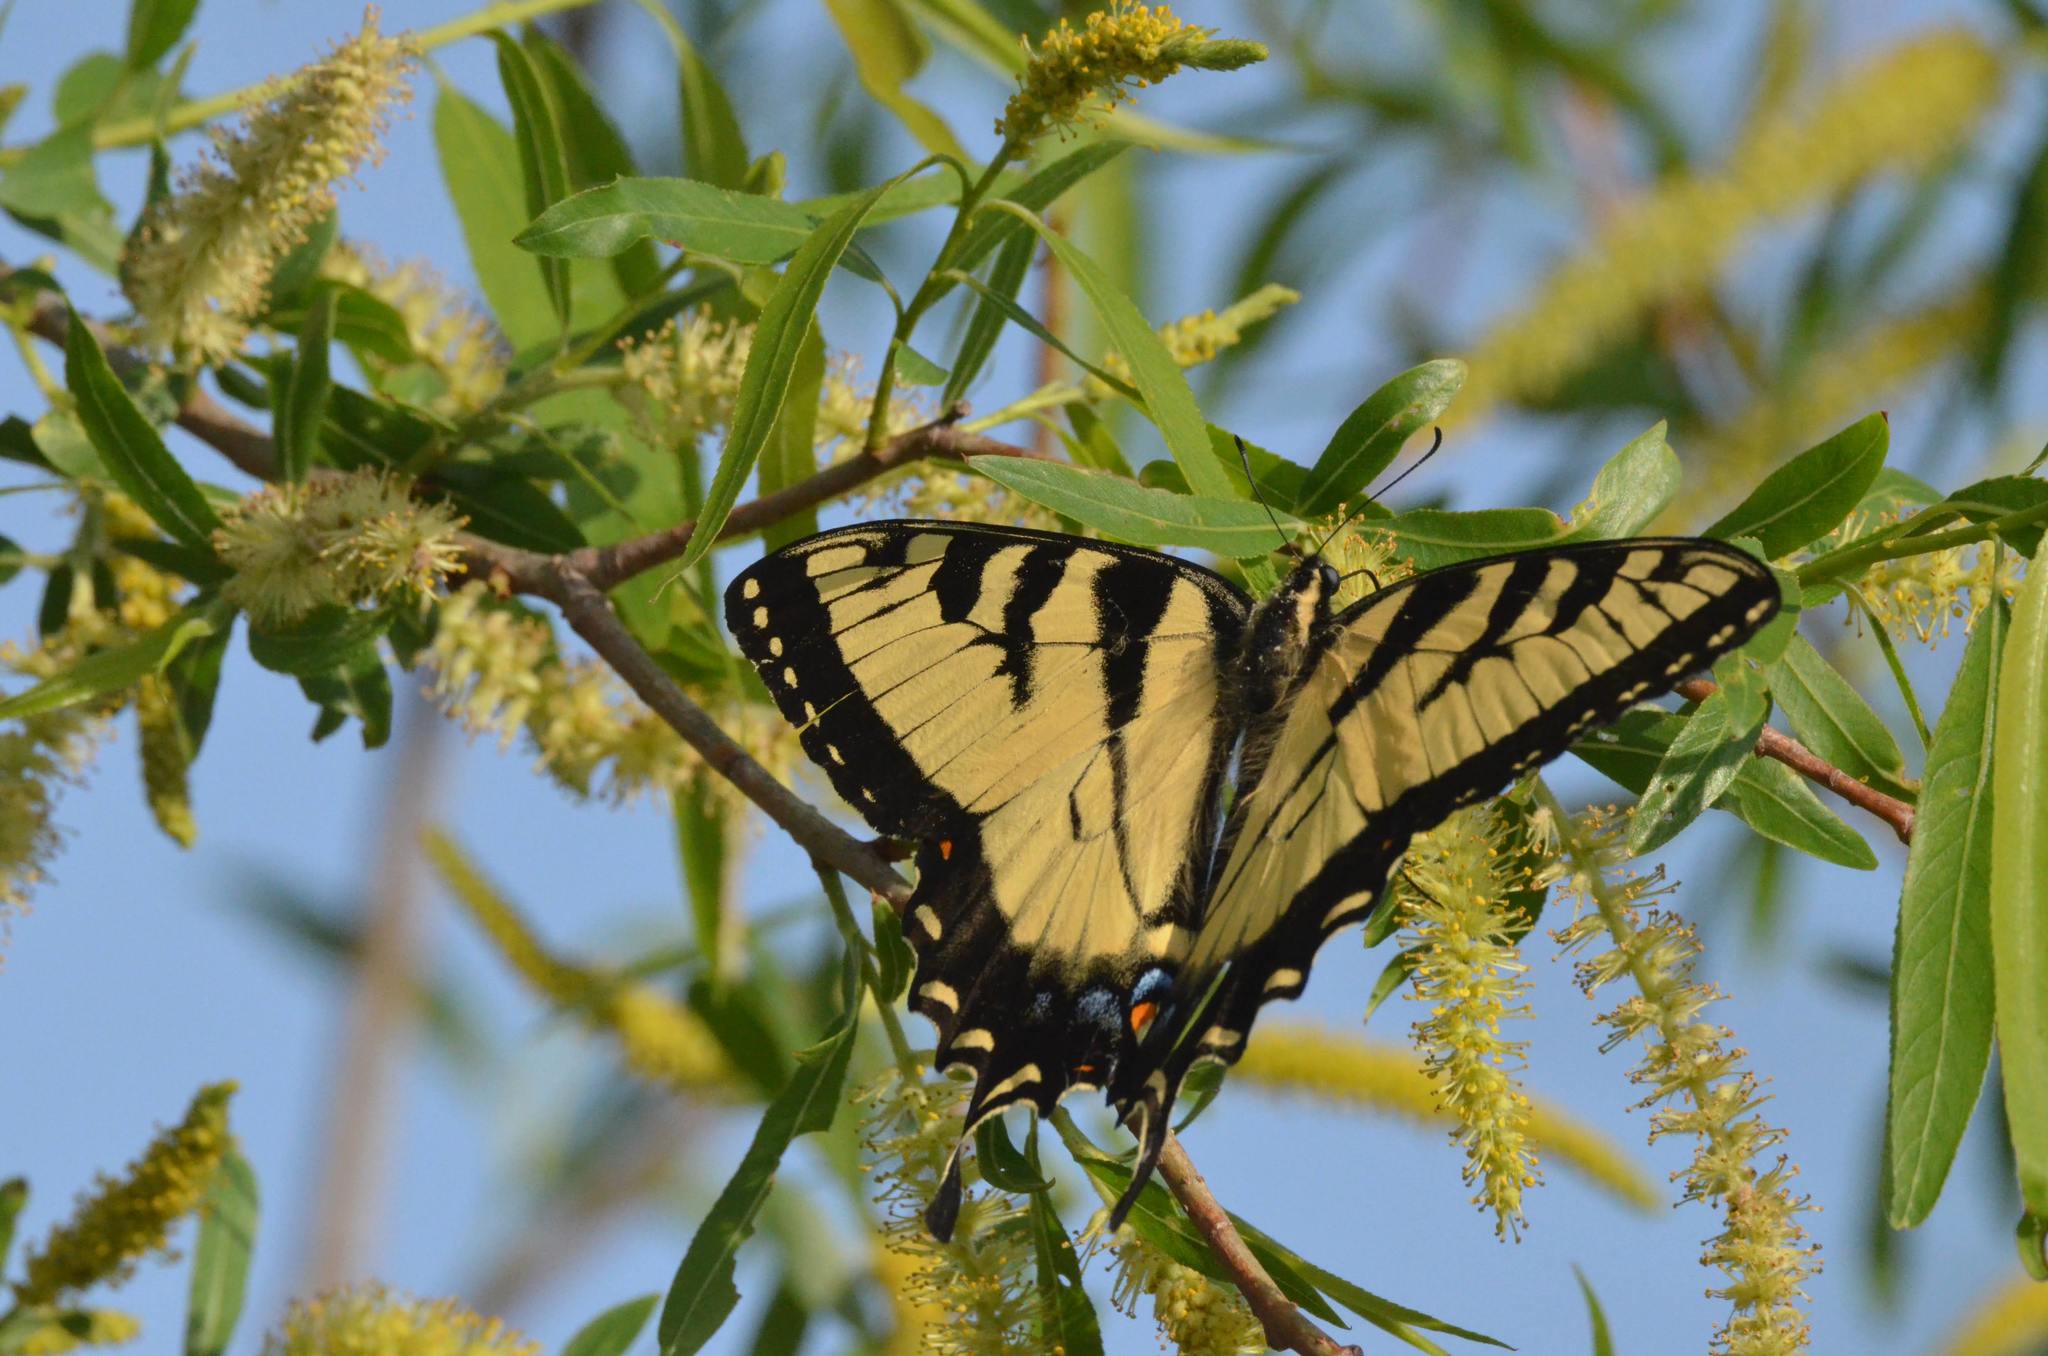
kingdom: Animalia
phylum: Arthropoda
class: Insecta
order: Lepidoptera
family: Papilionidae
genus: Papilio
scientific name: Papilio glaucus
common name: Tiger swallowtail
